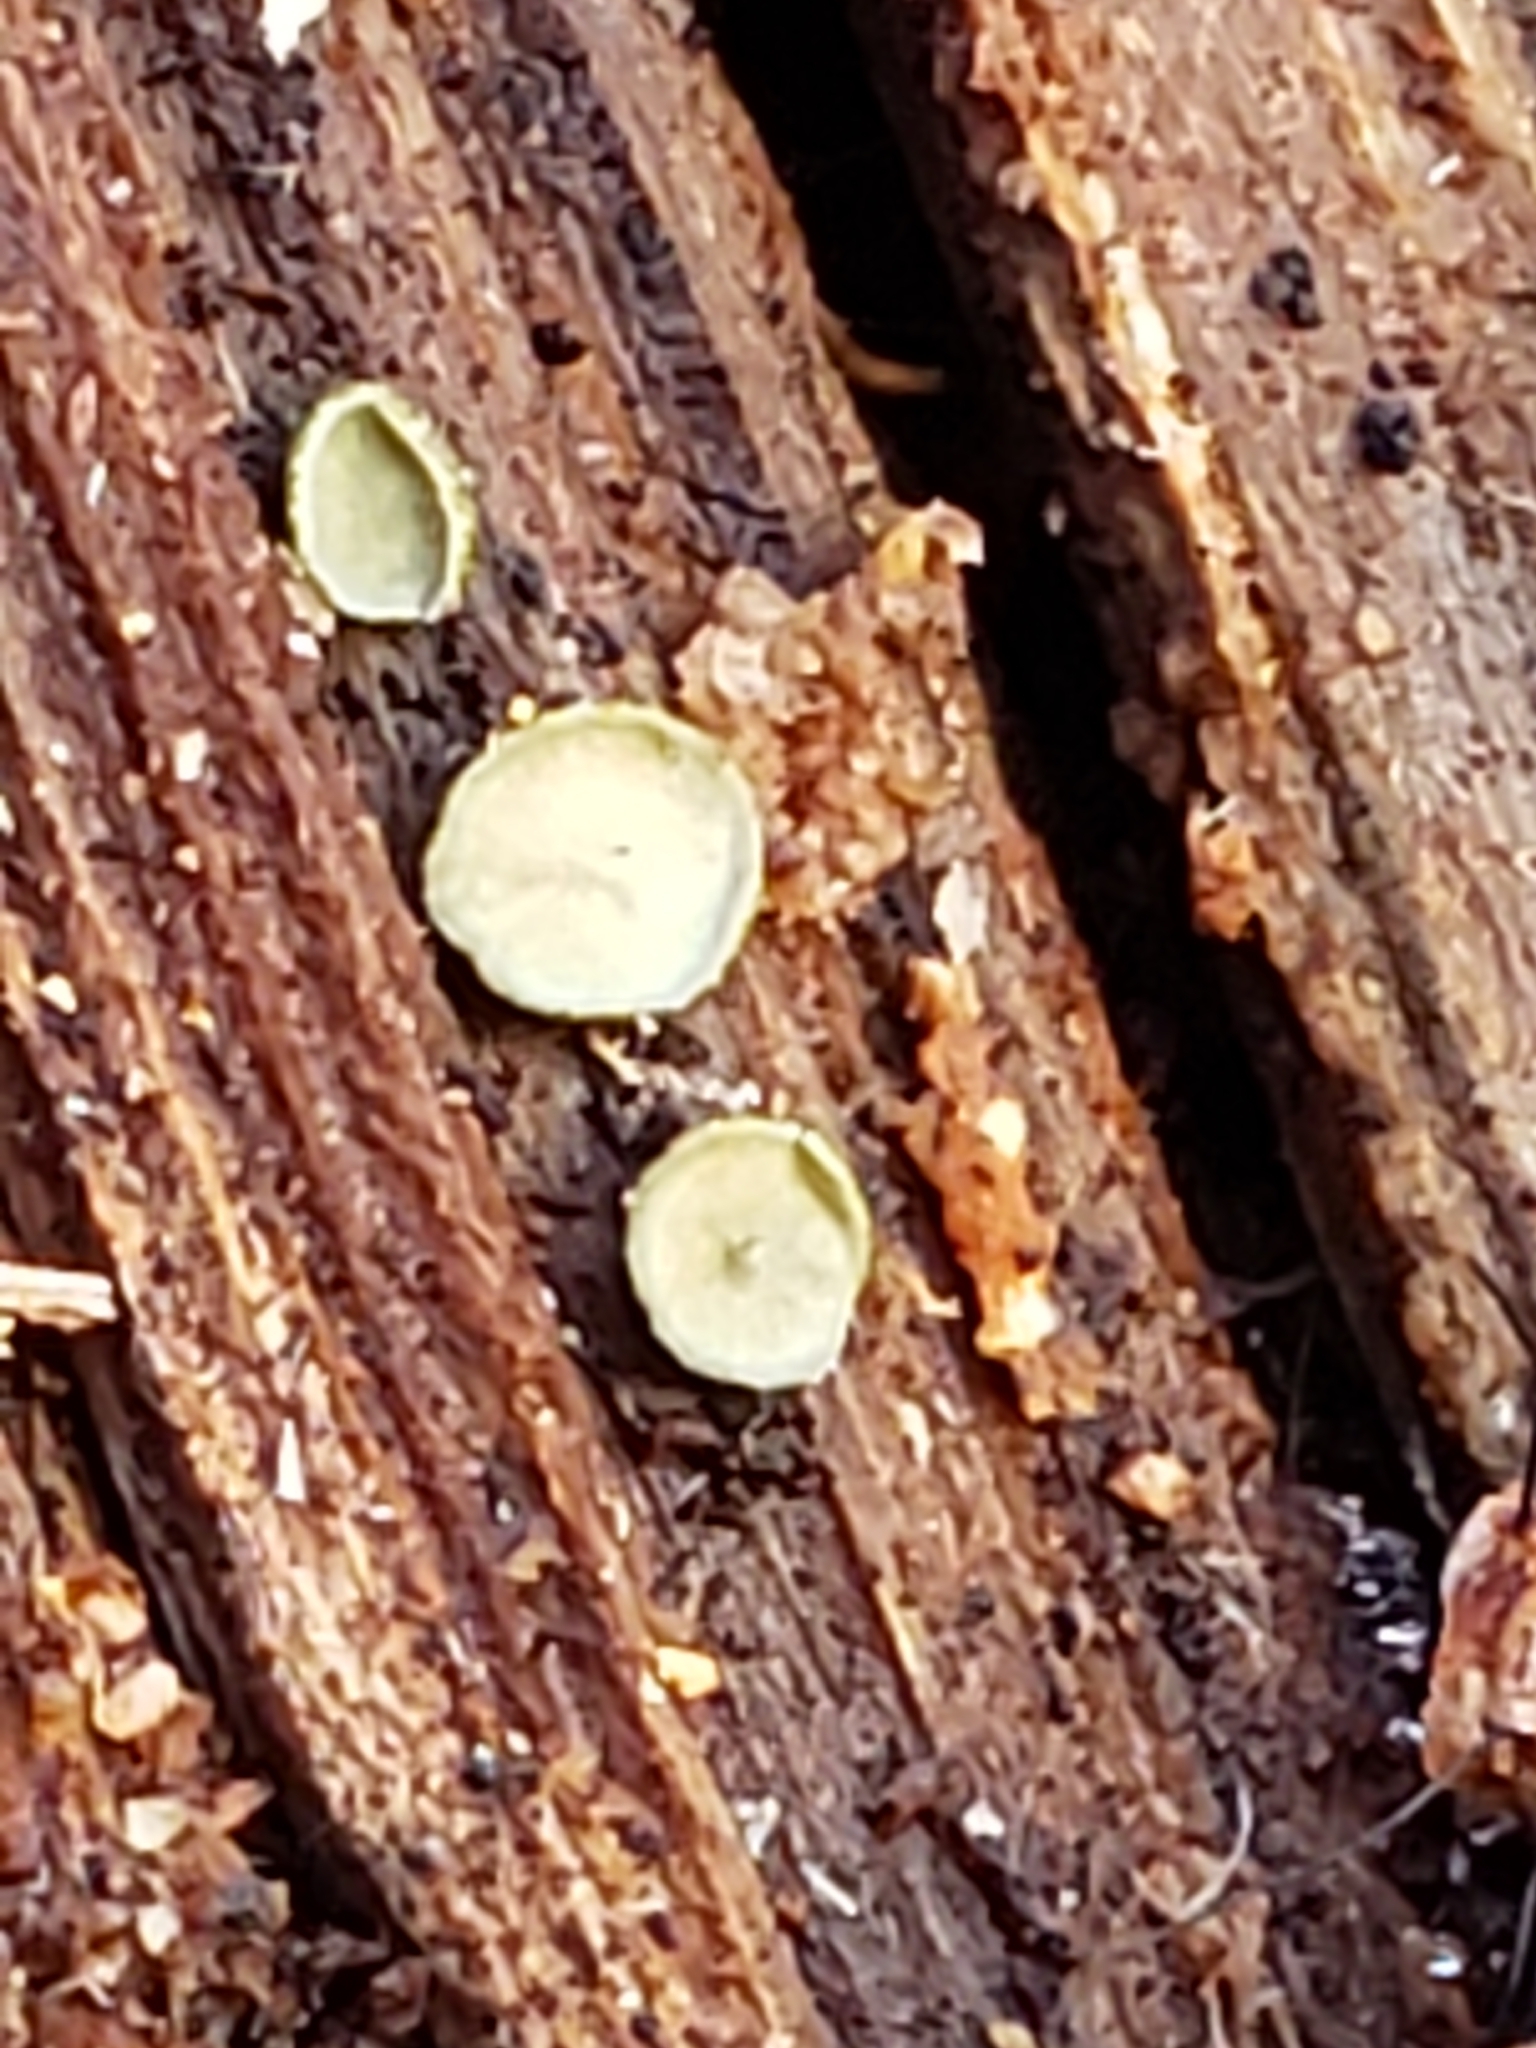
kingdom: Fungi
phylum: Ascomycota
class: Leotiomycetes
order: Helotiales
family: Chlorospleniaceae
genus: Chlorosplenium
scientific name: Chlorosplenium chlora
